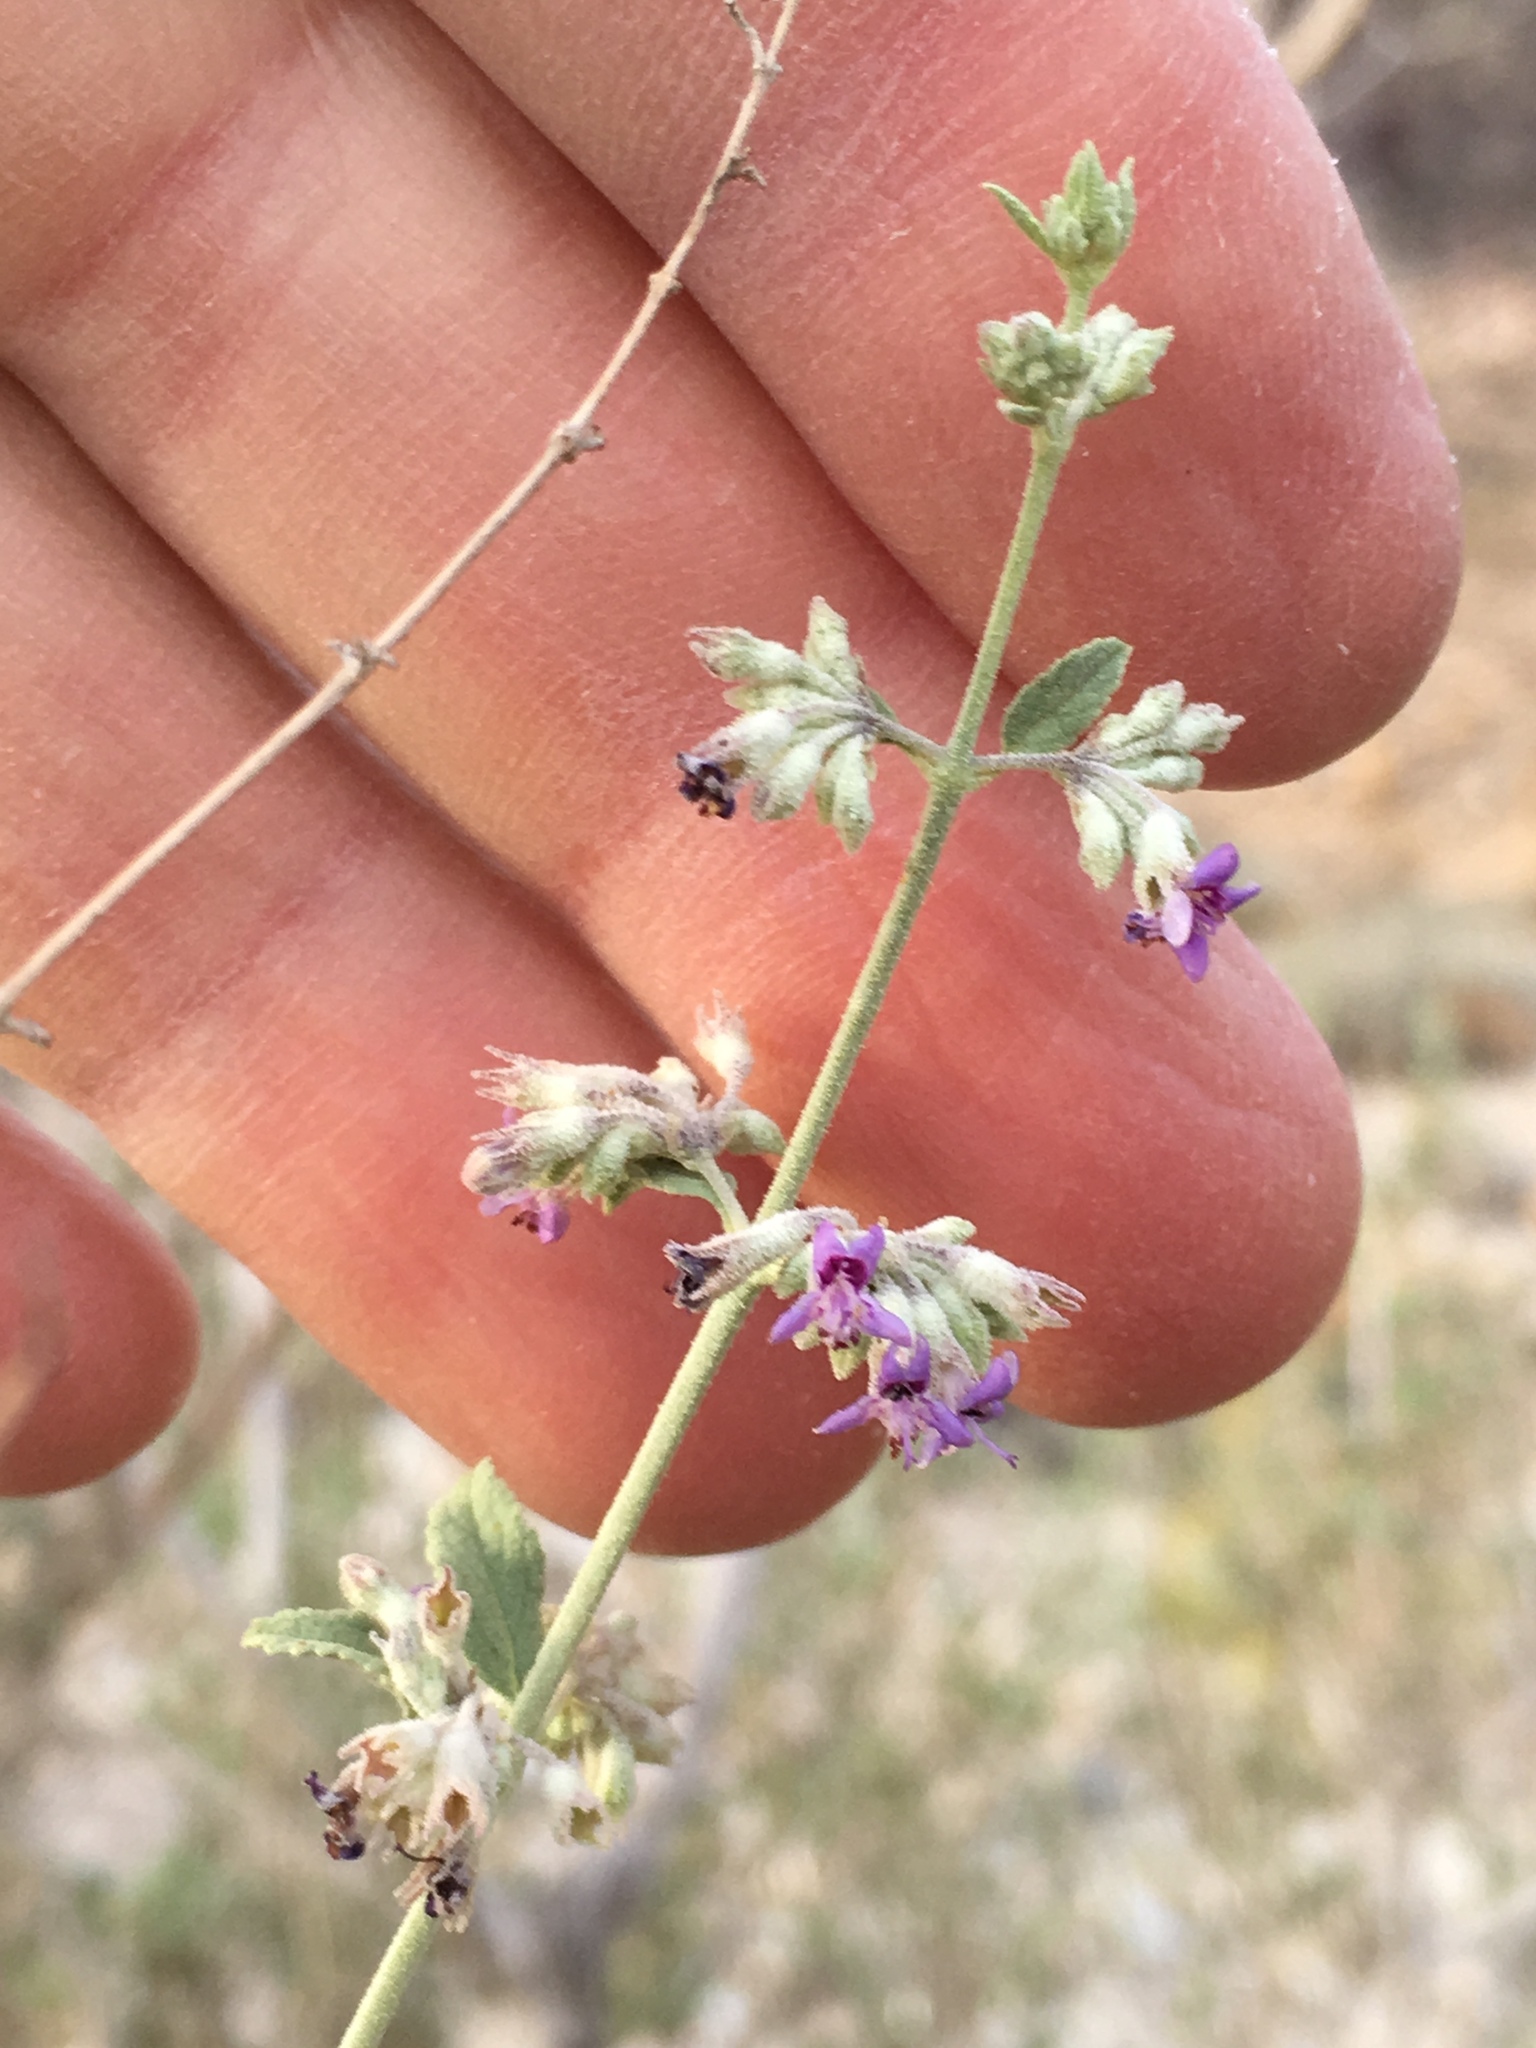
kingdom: Plantae
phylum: Tracheophyta
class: Magnoliopsida
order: Lamiales
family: Lamiaceae
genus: Condea
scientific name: Condea emoryi
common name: Chia
